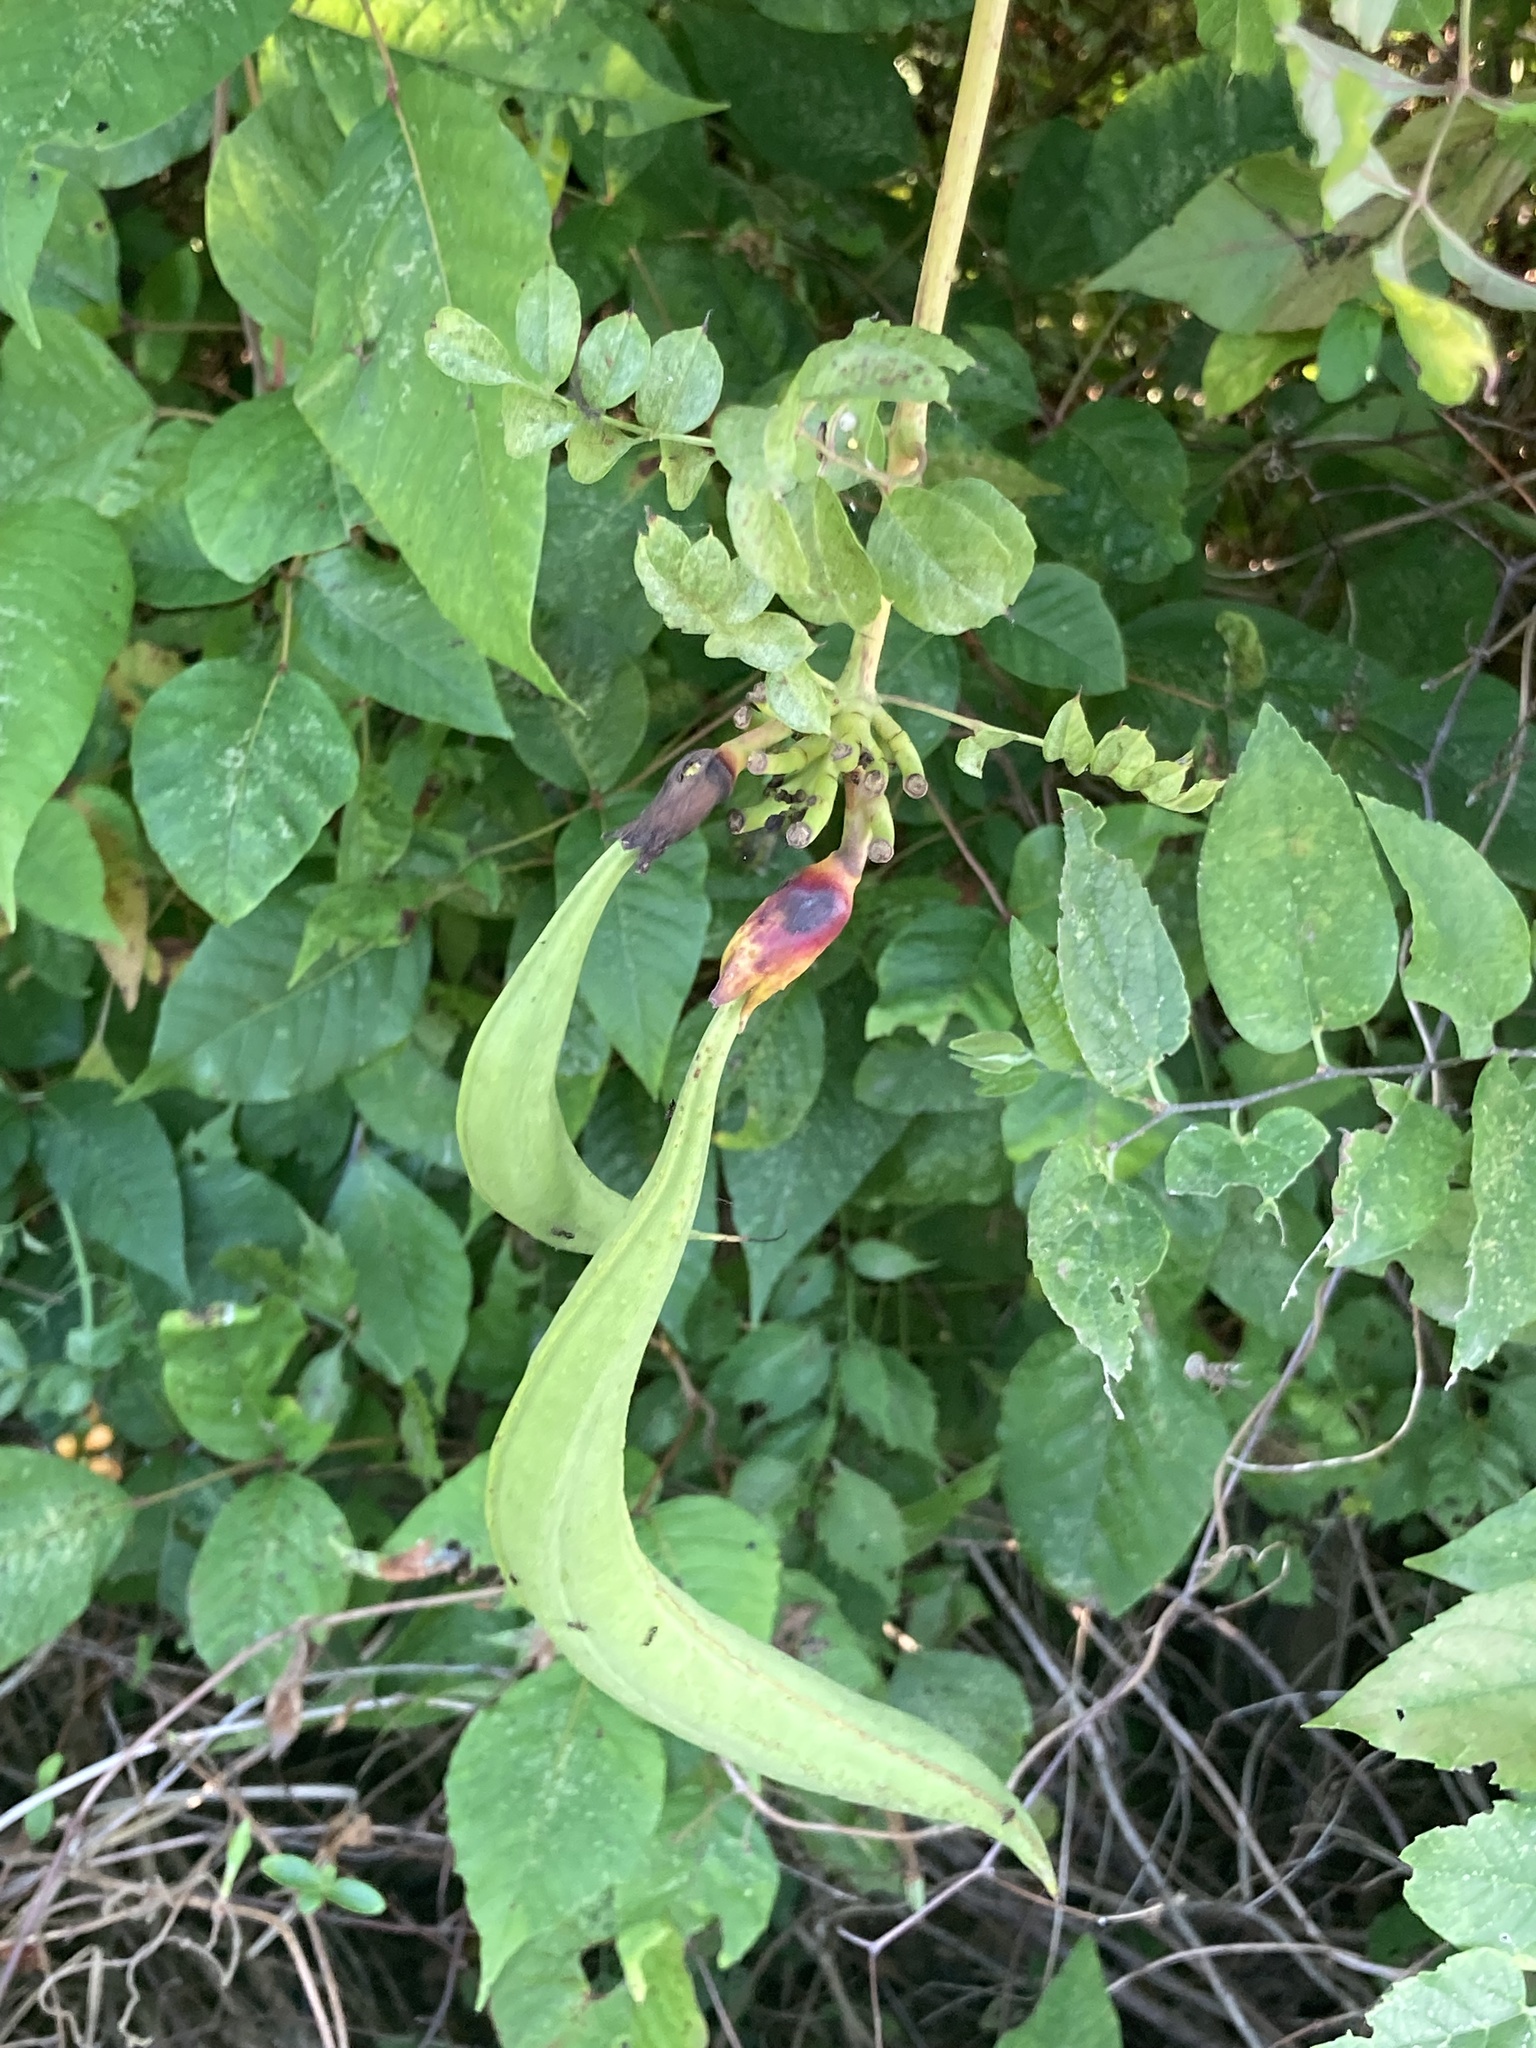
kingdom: Plantae
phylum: Tracheophyta
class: Magnoliopsida
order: Lamiales
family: Bignoniaceae
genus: Campsis
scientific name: Campsis radicans
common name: Trumpet-creeper
